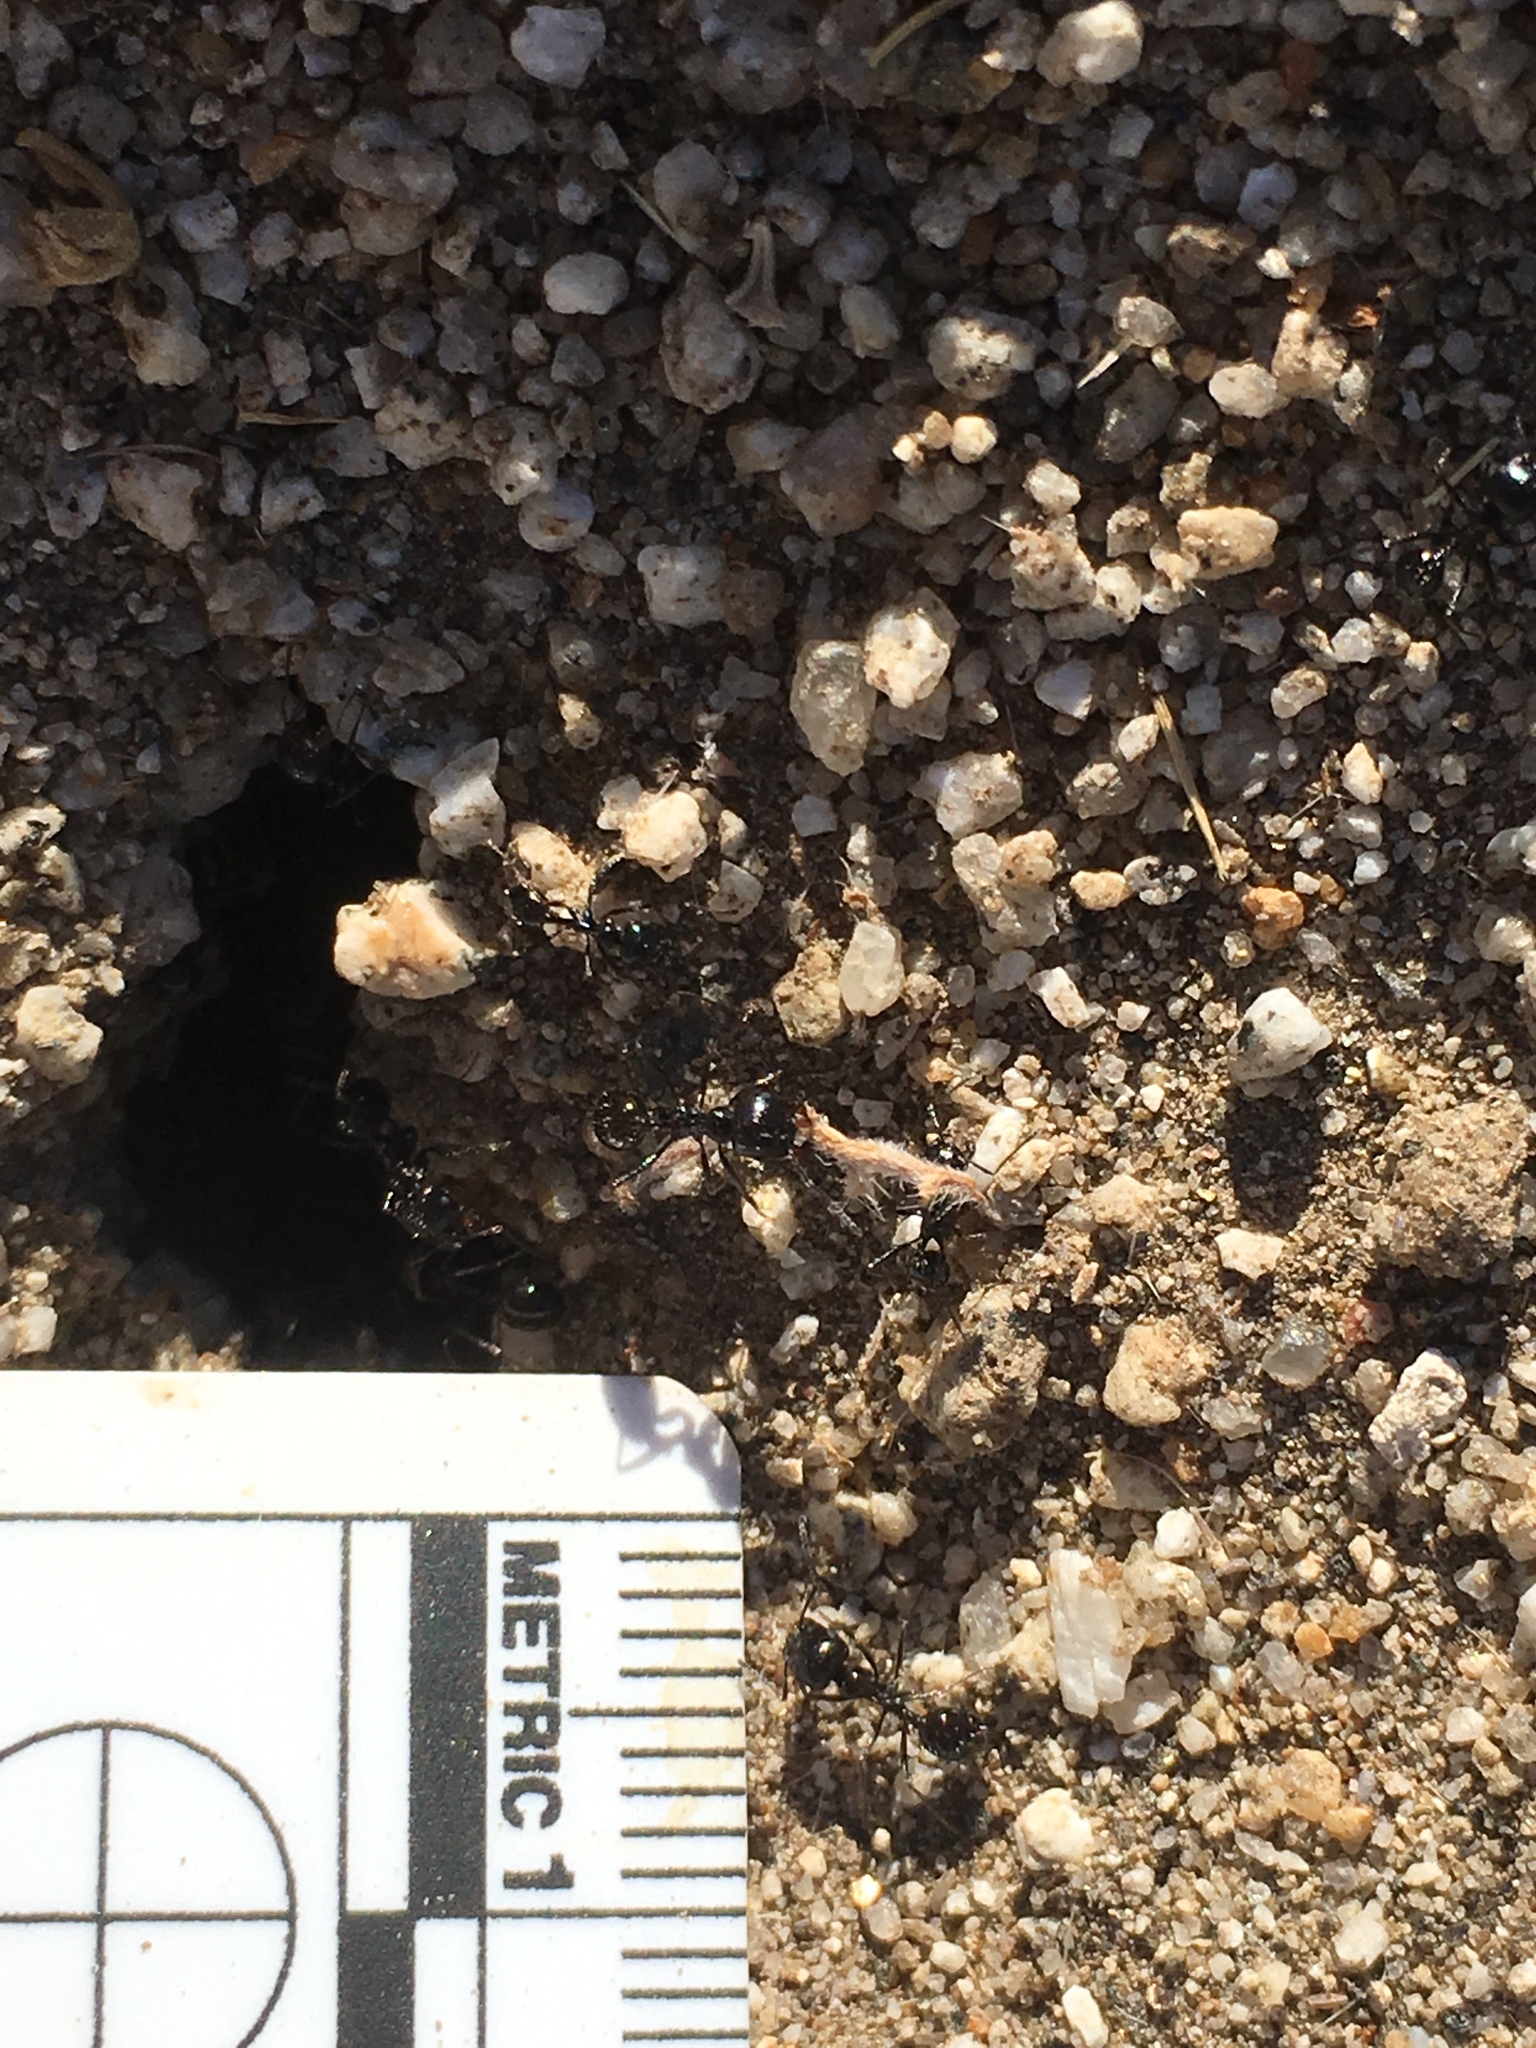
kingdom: Animalia
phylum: Arthropoda
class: Insecta
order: Hymenoptera
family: Formicidae
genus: Messor
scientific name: Messor pergandei
